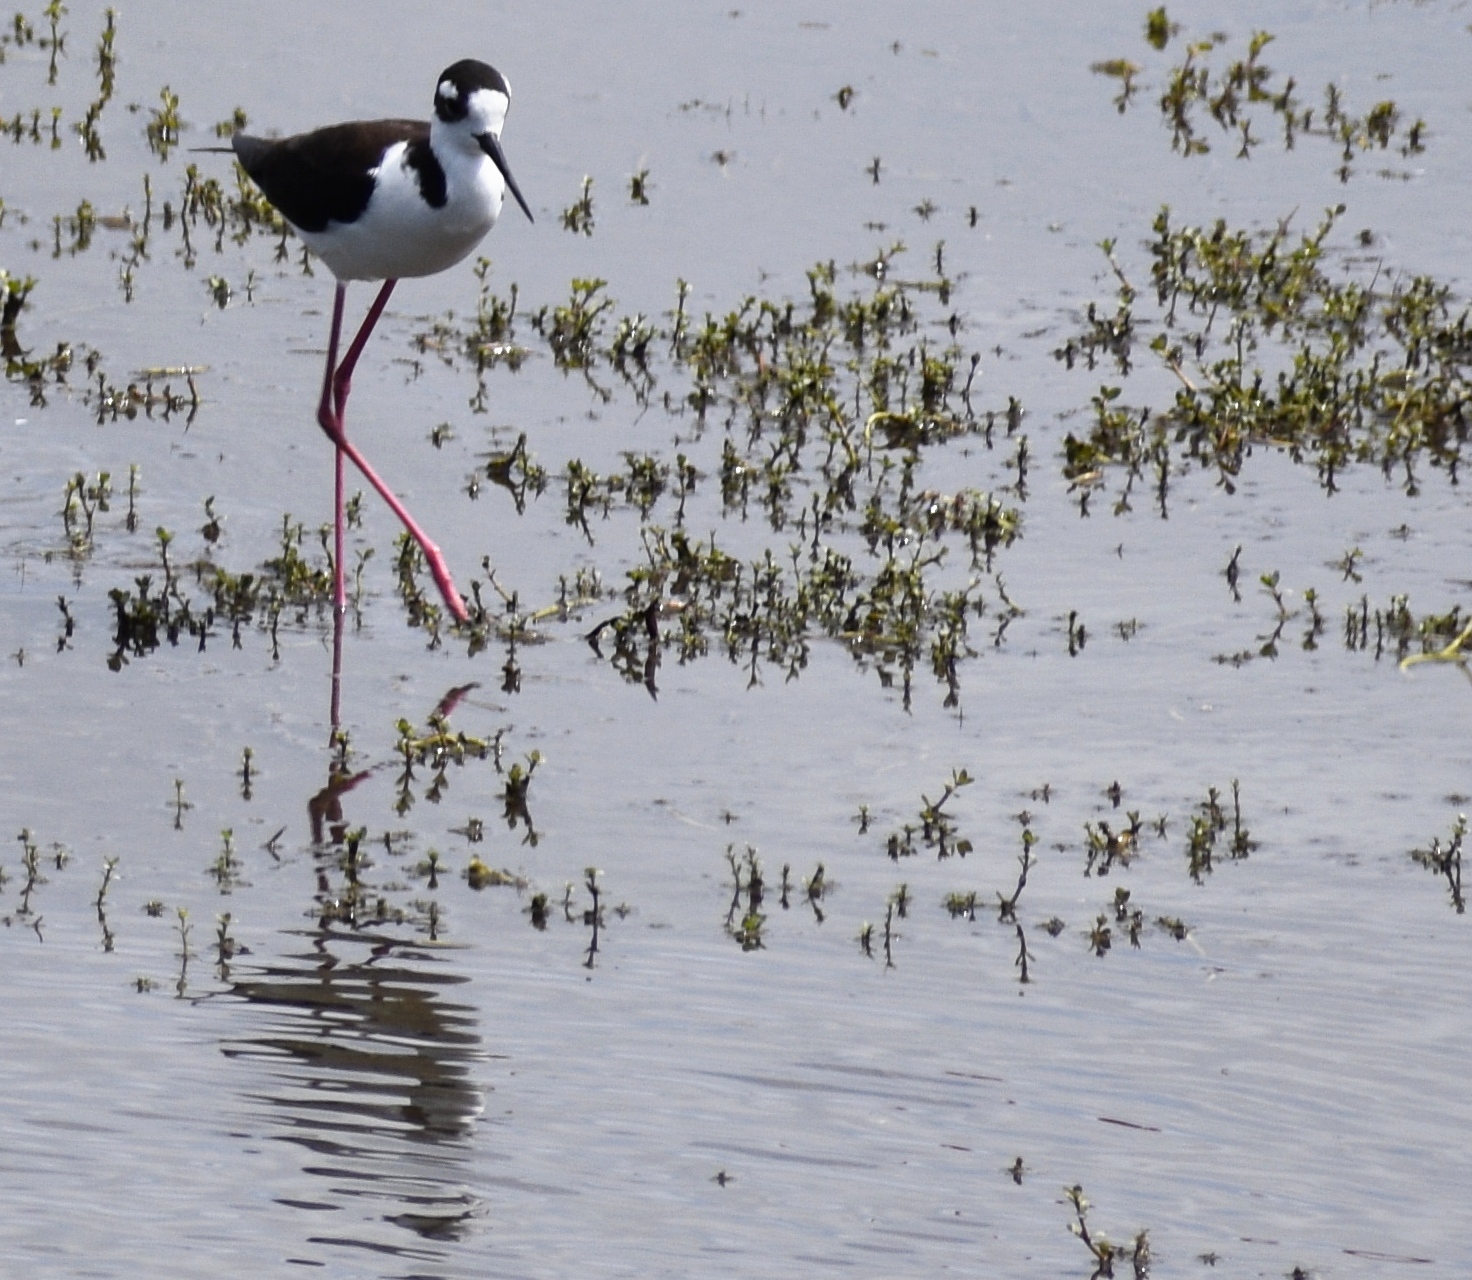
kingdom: Animalia
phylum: Chordata
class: Aves
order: Charadriiformes
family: Recurvirostridae
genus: Himantopus
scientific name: Himantopus mexicanus
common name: Black-necked stilt
